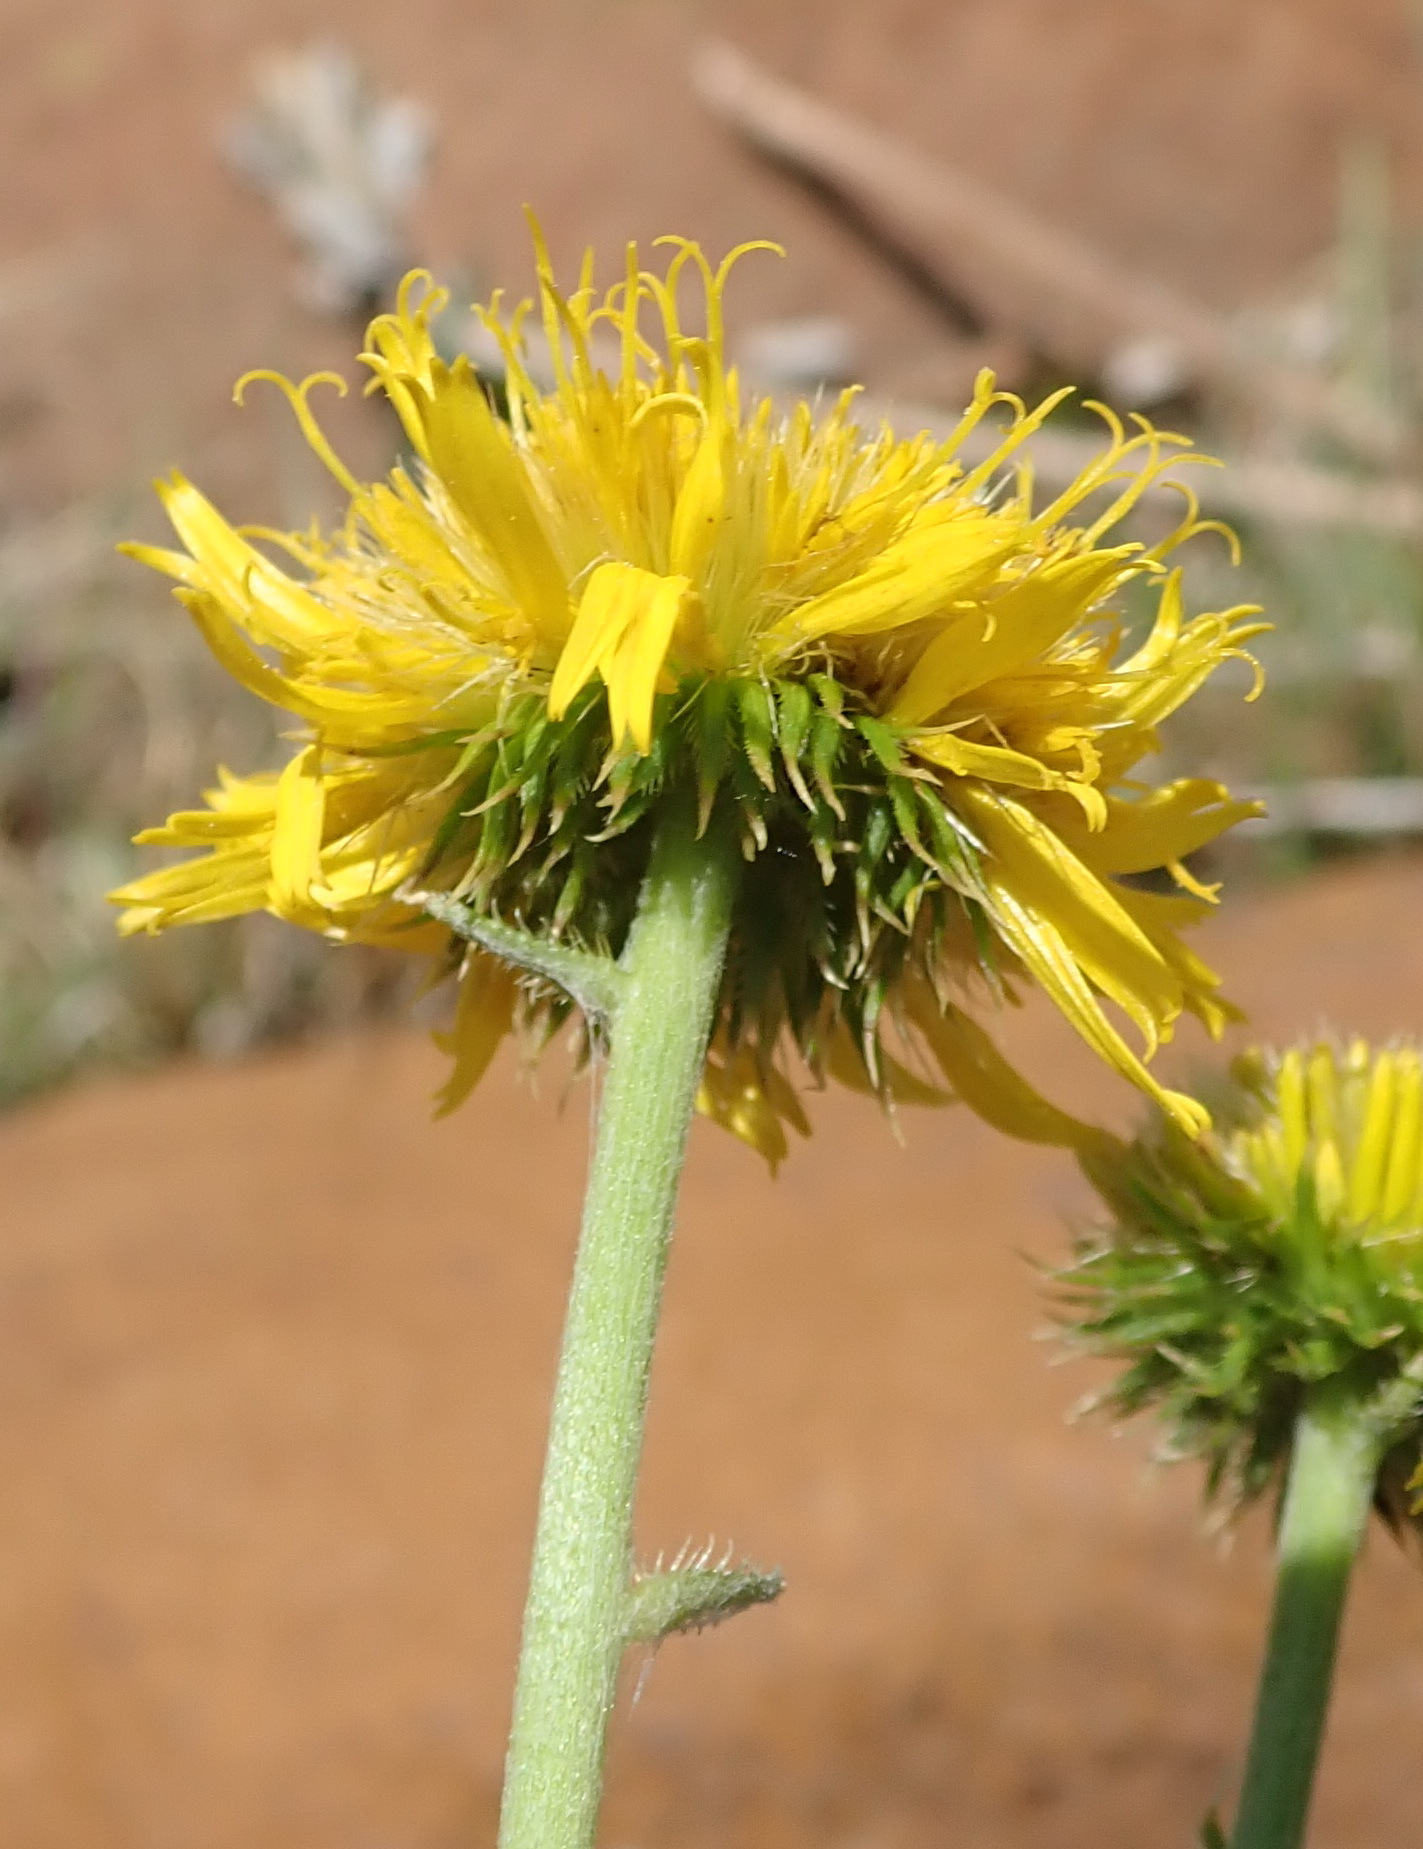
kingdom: Plantae
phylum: Tracheophyta
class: Magnoliopsida
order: Asterales
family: Asteraceae
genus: Berkheya
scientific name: Berkheya setifera
